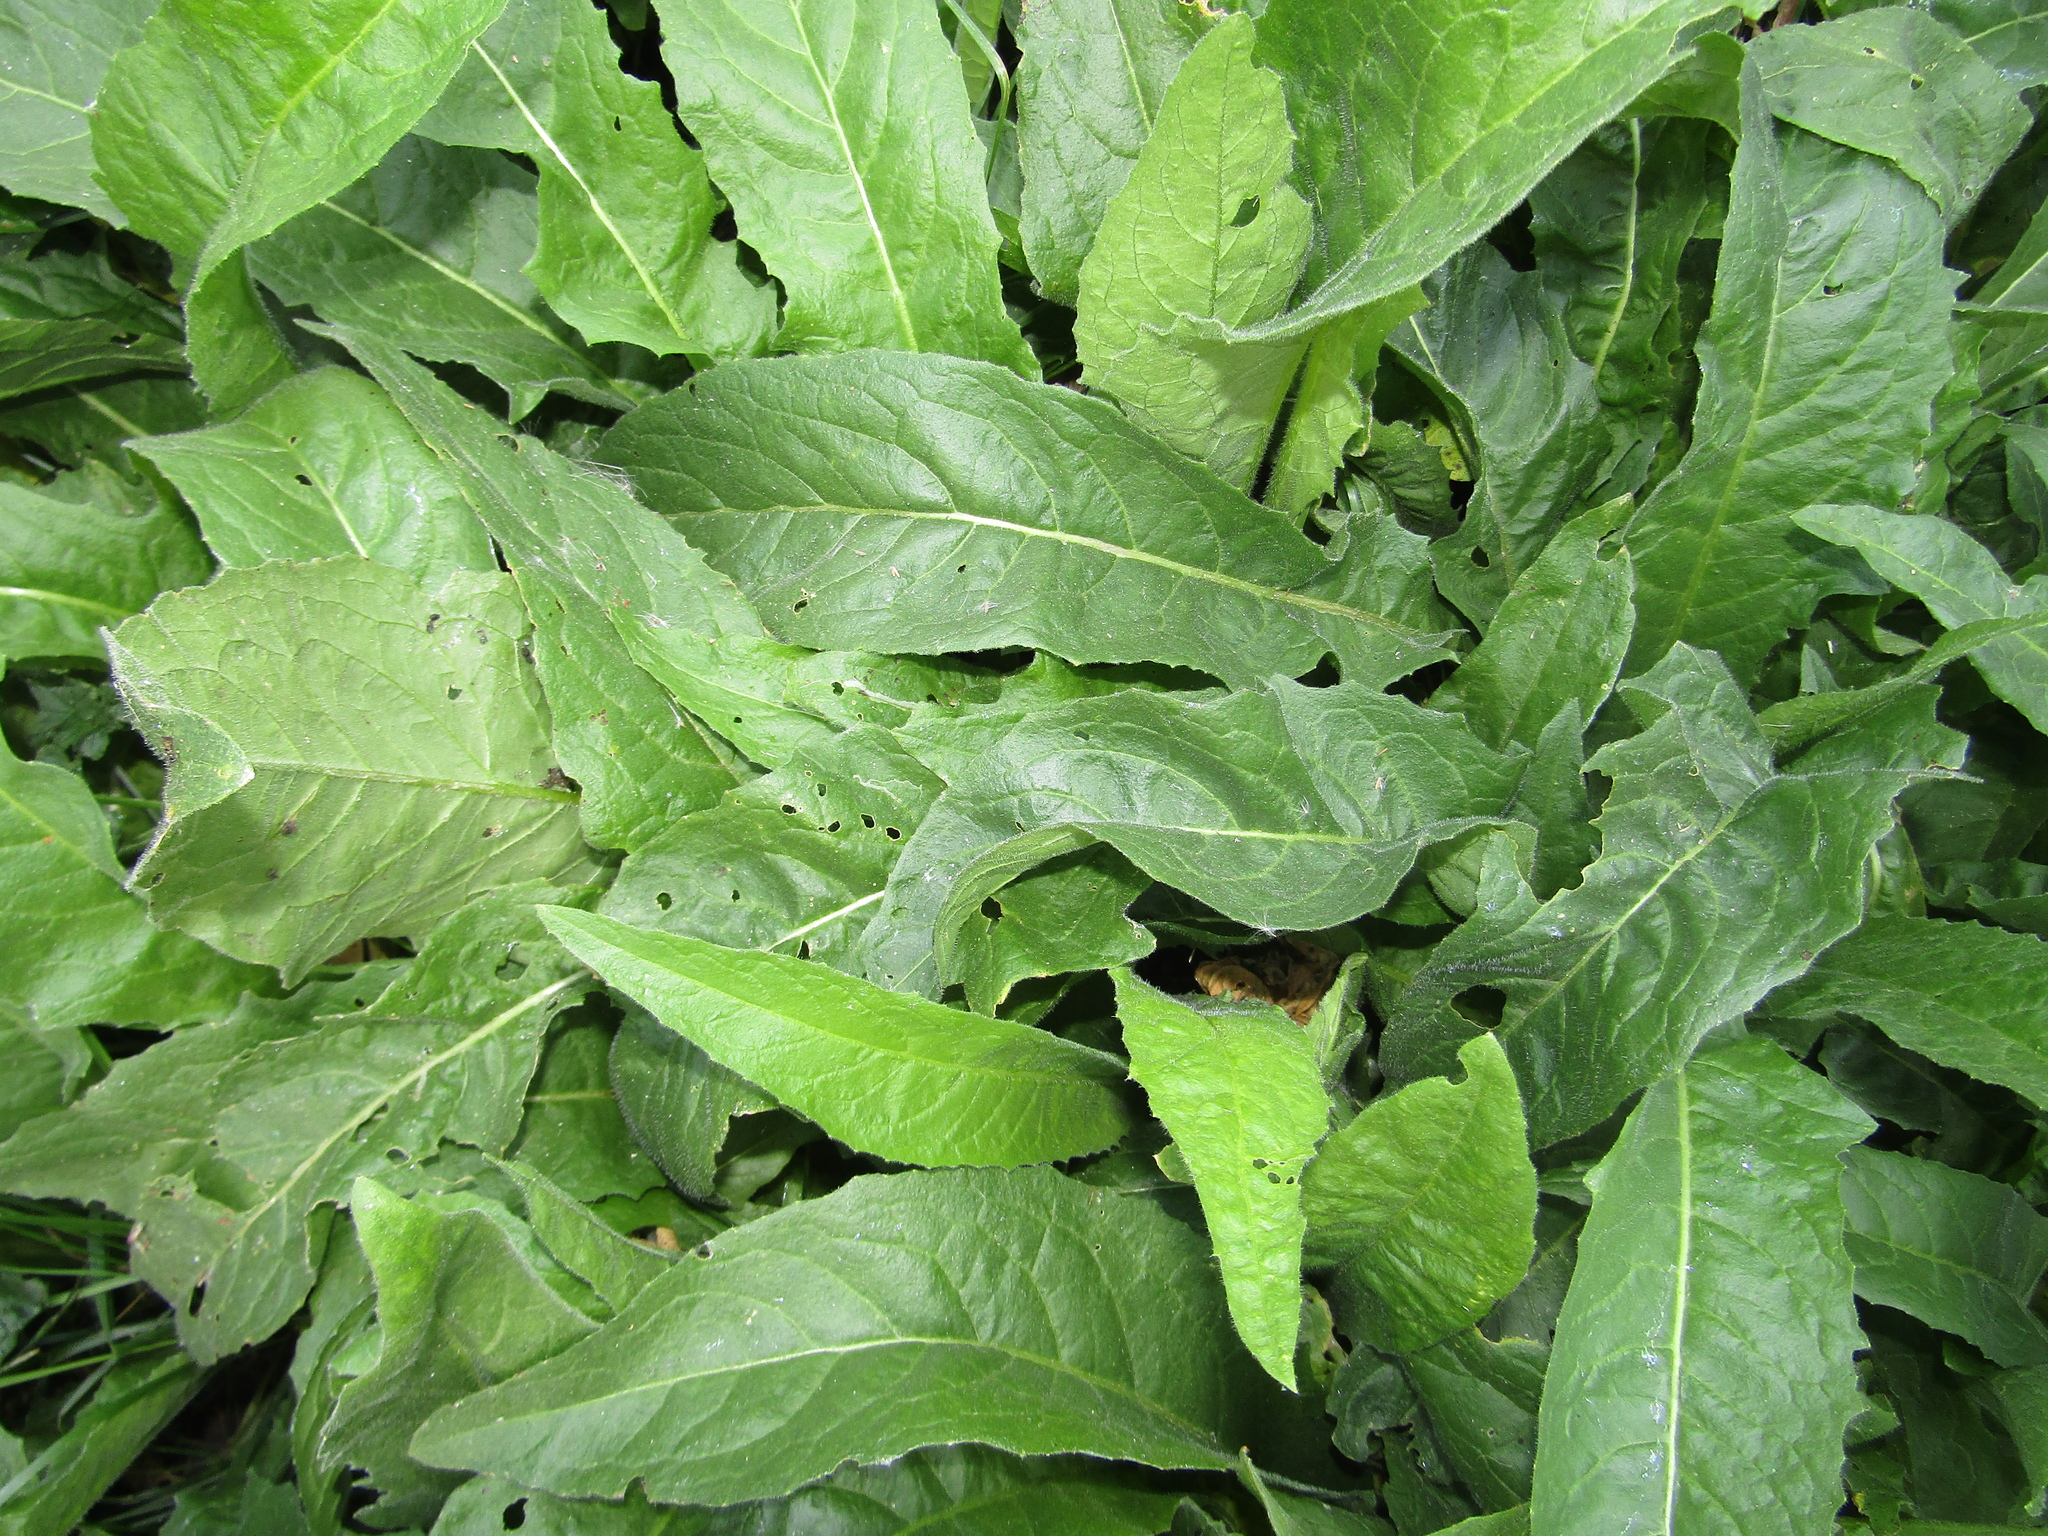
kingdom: Plantae
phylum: Tracheophyta
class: Magnoliopsida
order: Brassicales
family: Brassicaceae
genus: Bunias
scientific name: Bunias orientalis
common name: Warty-cabbage
